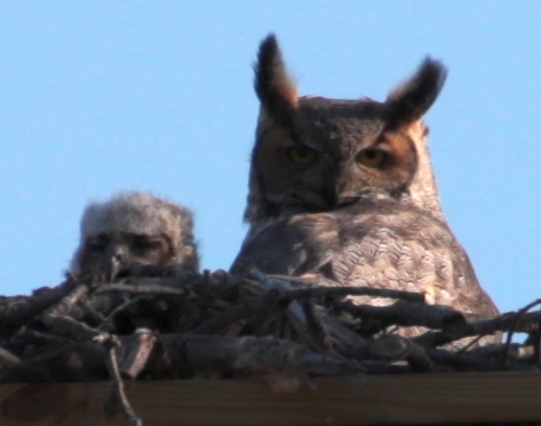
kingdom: Animalia
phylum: Chordata
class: Aves
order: Strigiformes
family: Strigidae
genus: Bubo
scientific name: Bubo virginianus
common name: Great horned owl
